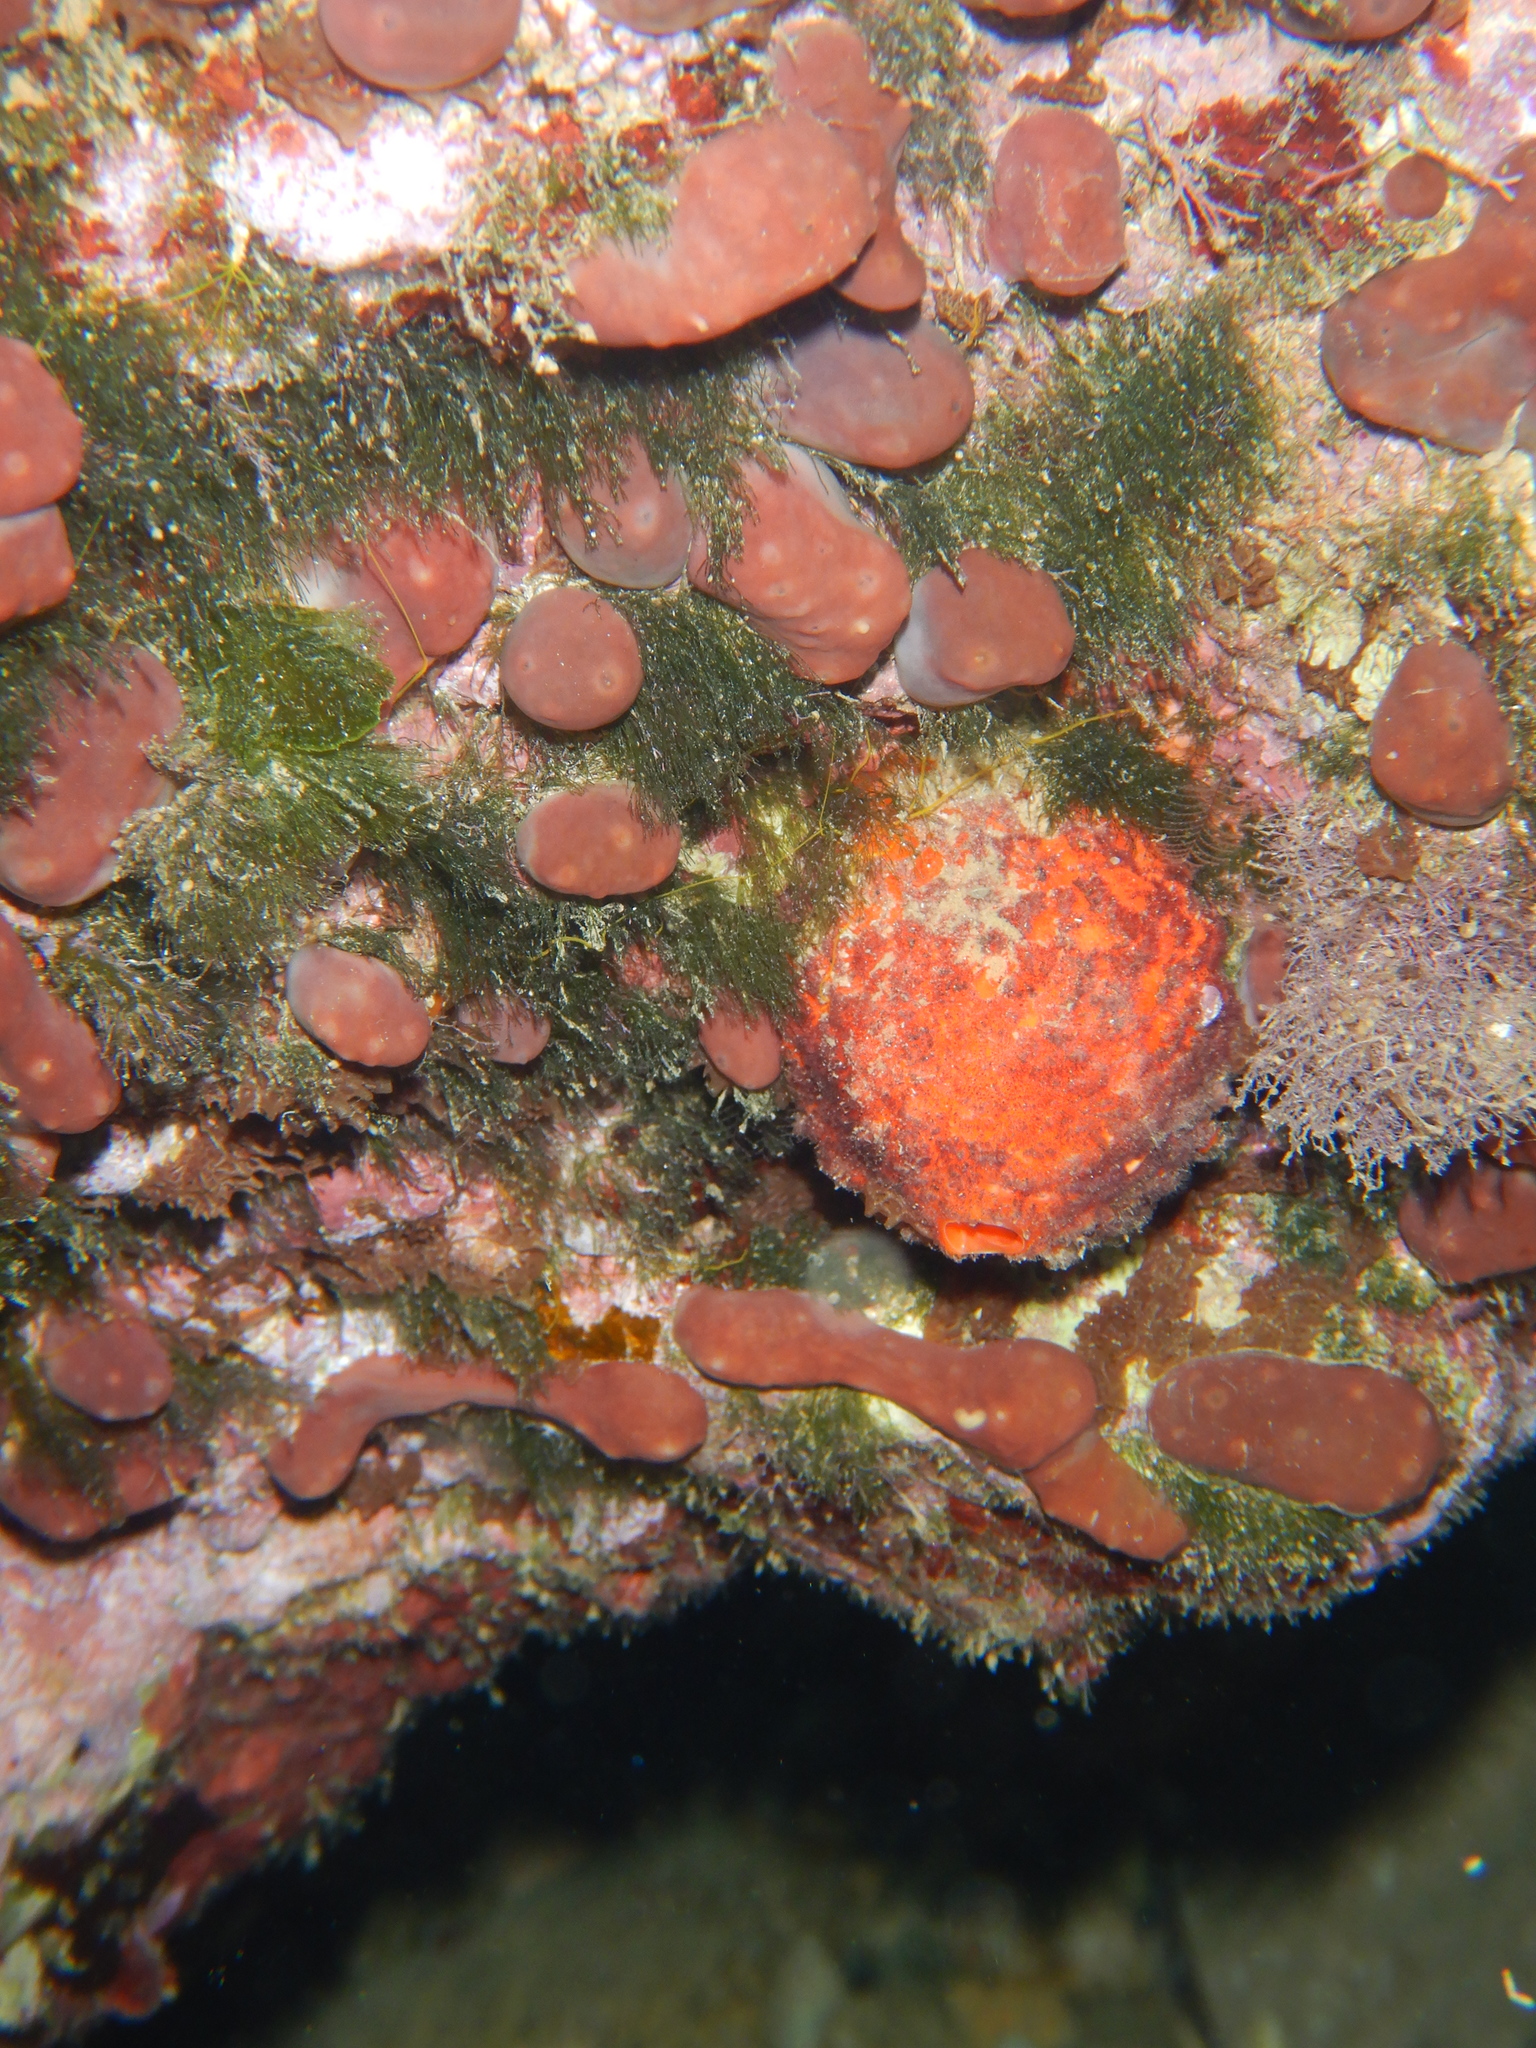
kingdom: Animalia
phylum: Porifera
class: Demospongiae
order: Tethyida
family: Tethyidae
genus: Tethya
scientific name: Tethya aurantium
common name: Golf ball sponge
